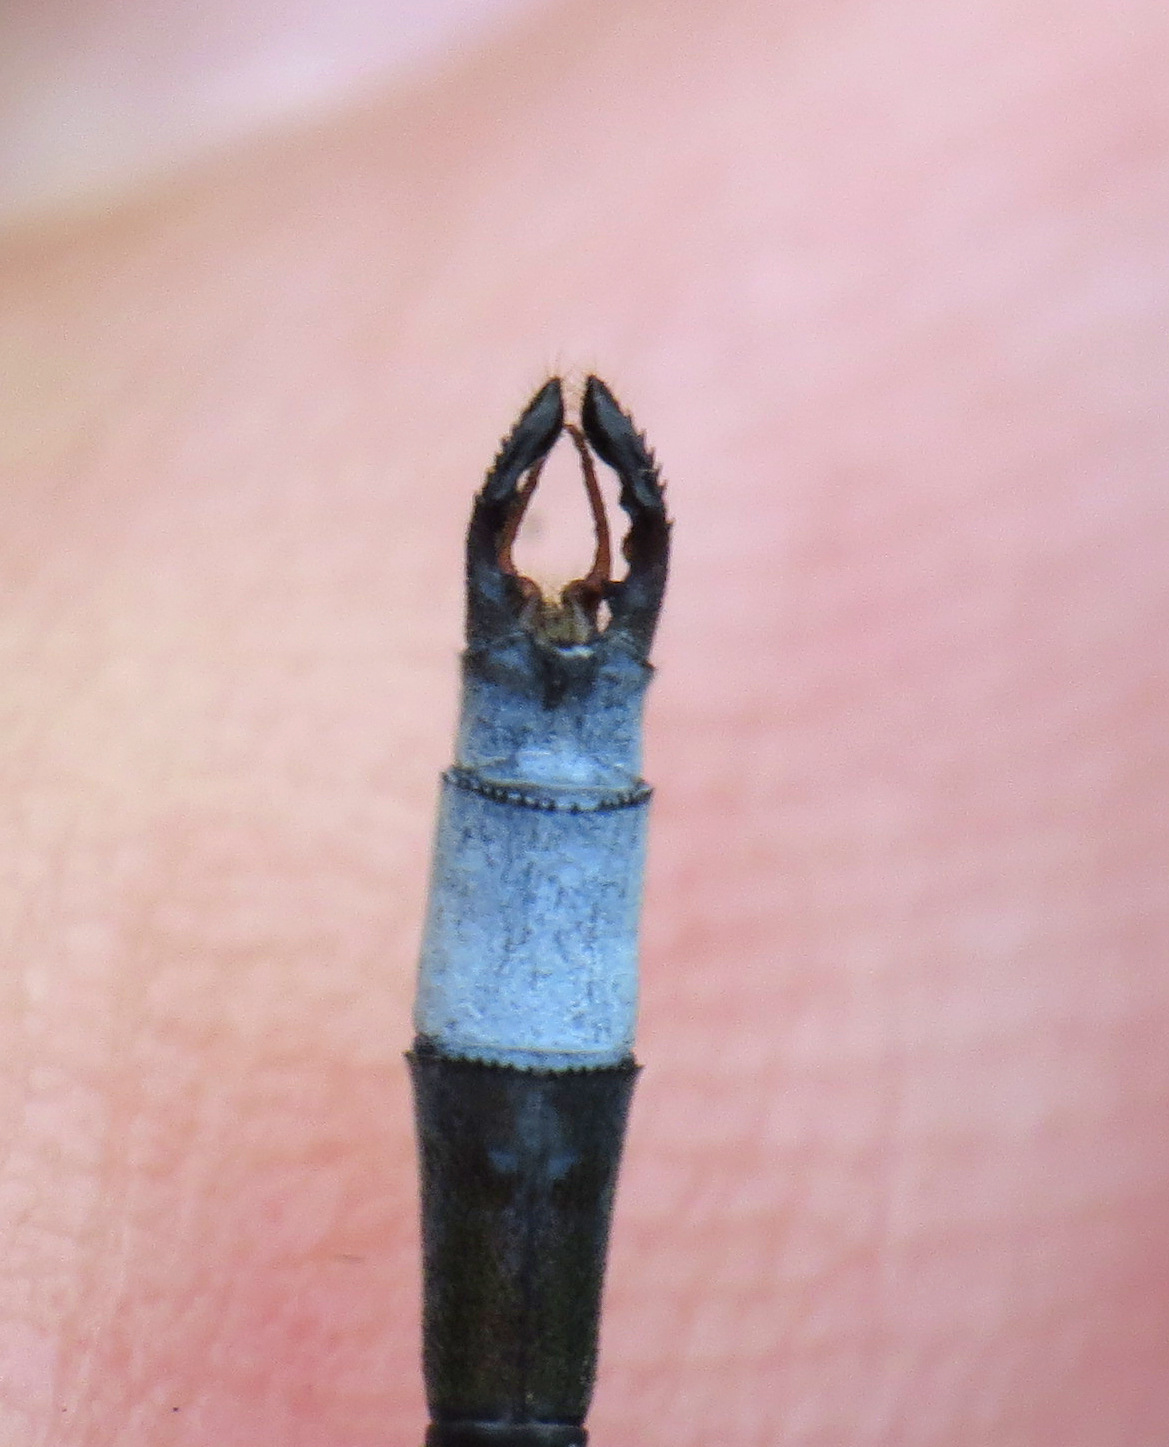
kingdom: Animalia
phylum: Arthropoda
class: Insecta
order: Odonata
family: Lestidae
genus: Lestes
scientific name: Lestes vigilax
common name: Swamp spreadwing
